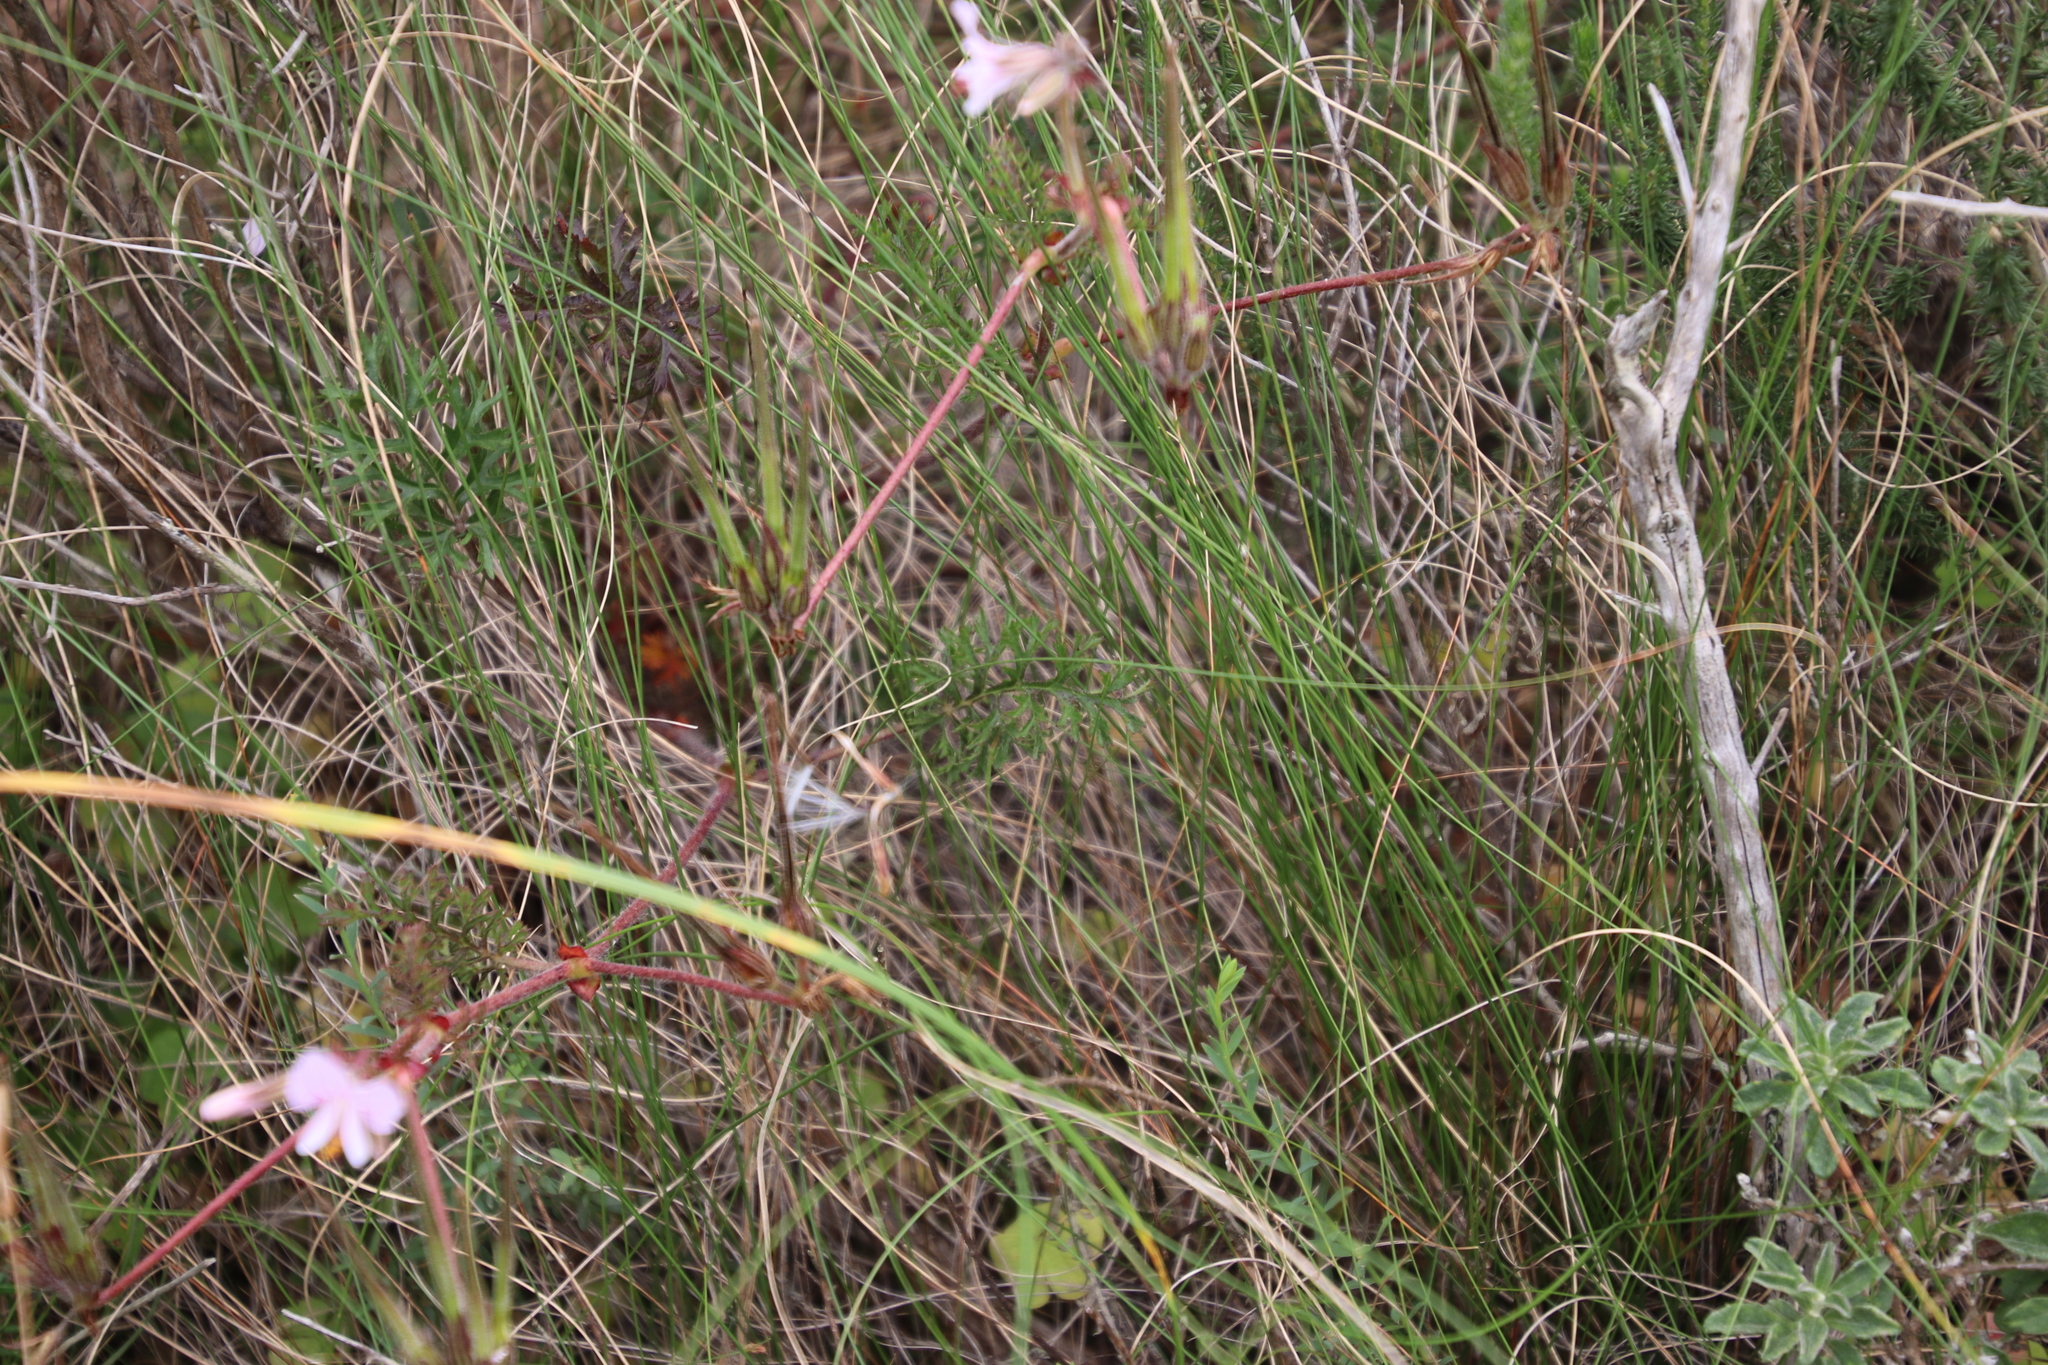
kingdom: Plantae
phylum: Tracheophyta
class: Magnoliopsida
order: Geraniales
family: Geraniaceae
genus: Pelargonium
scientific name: Pelargonium myrrhifolium
